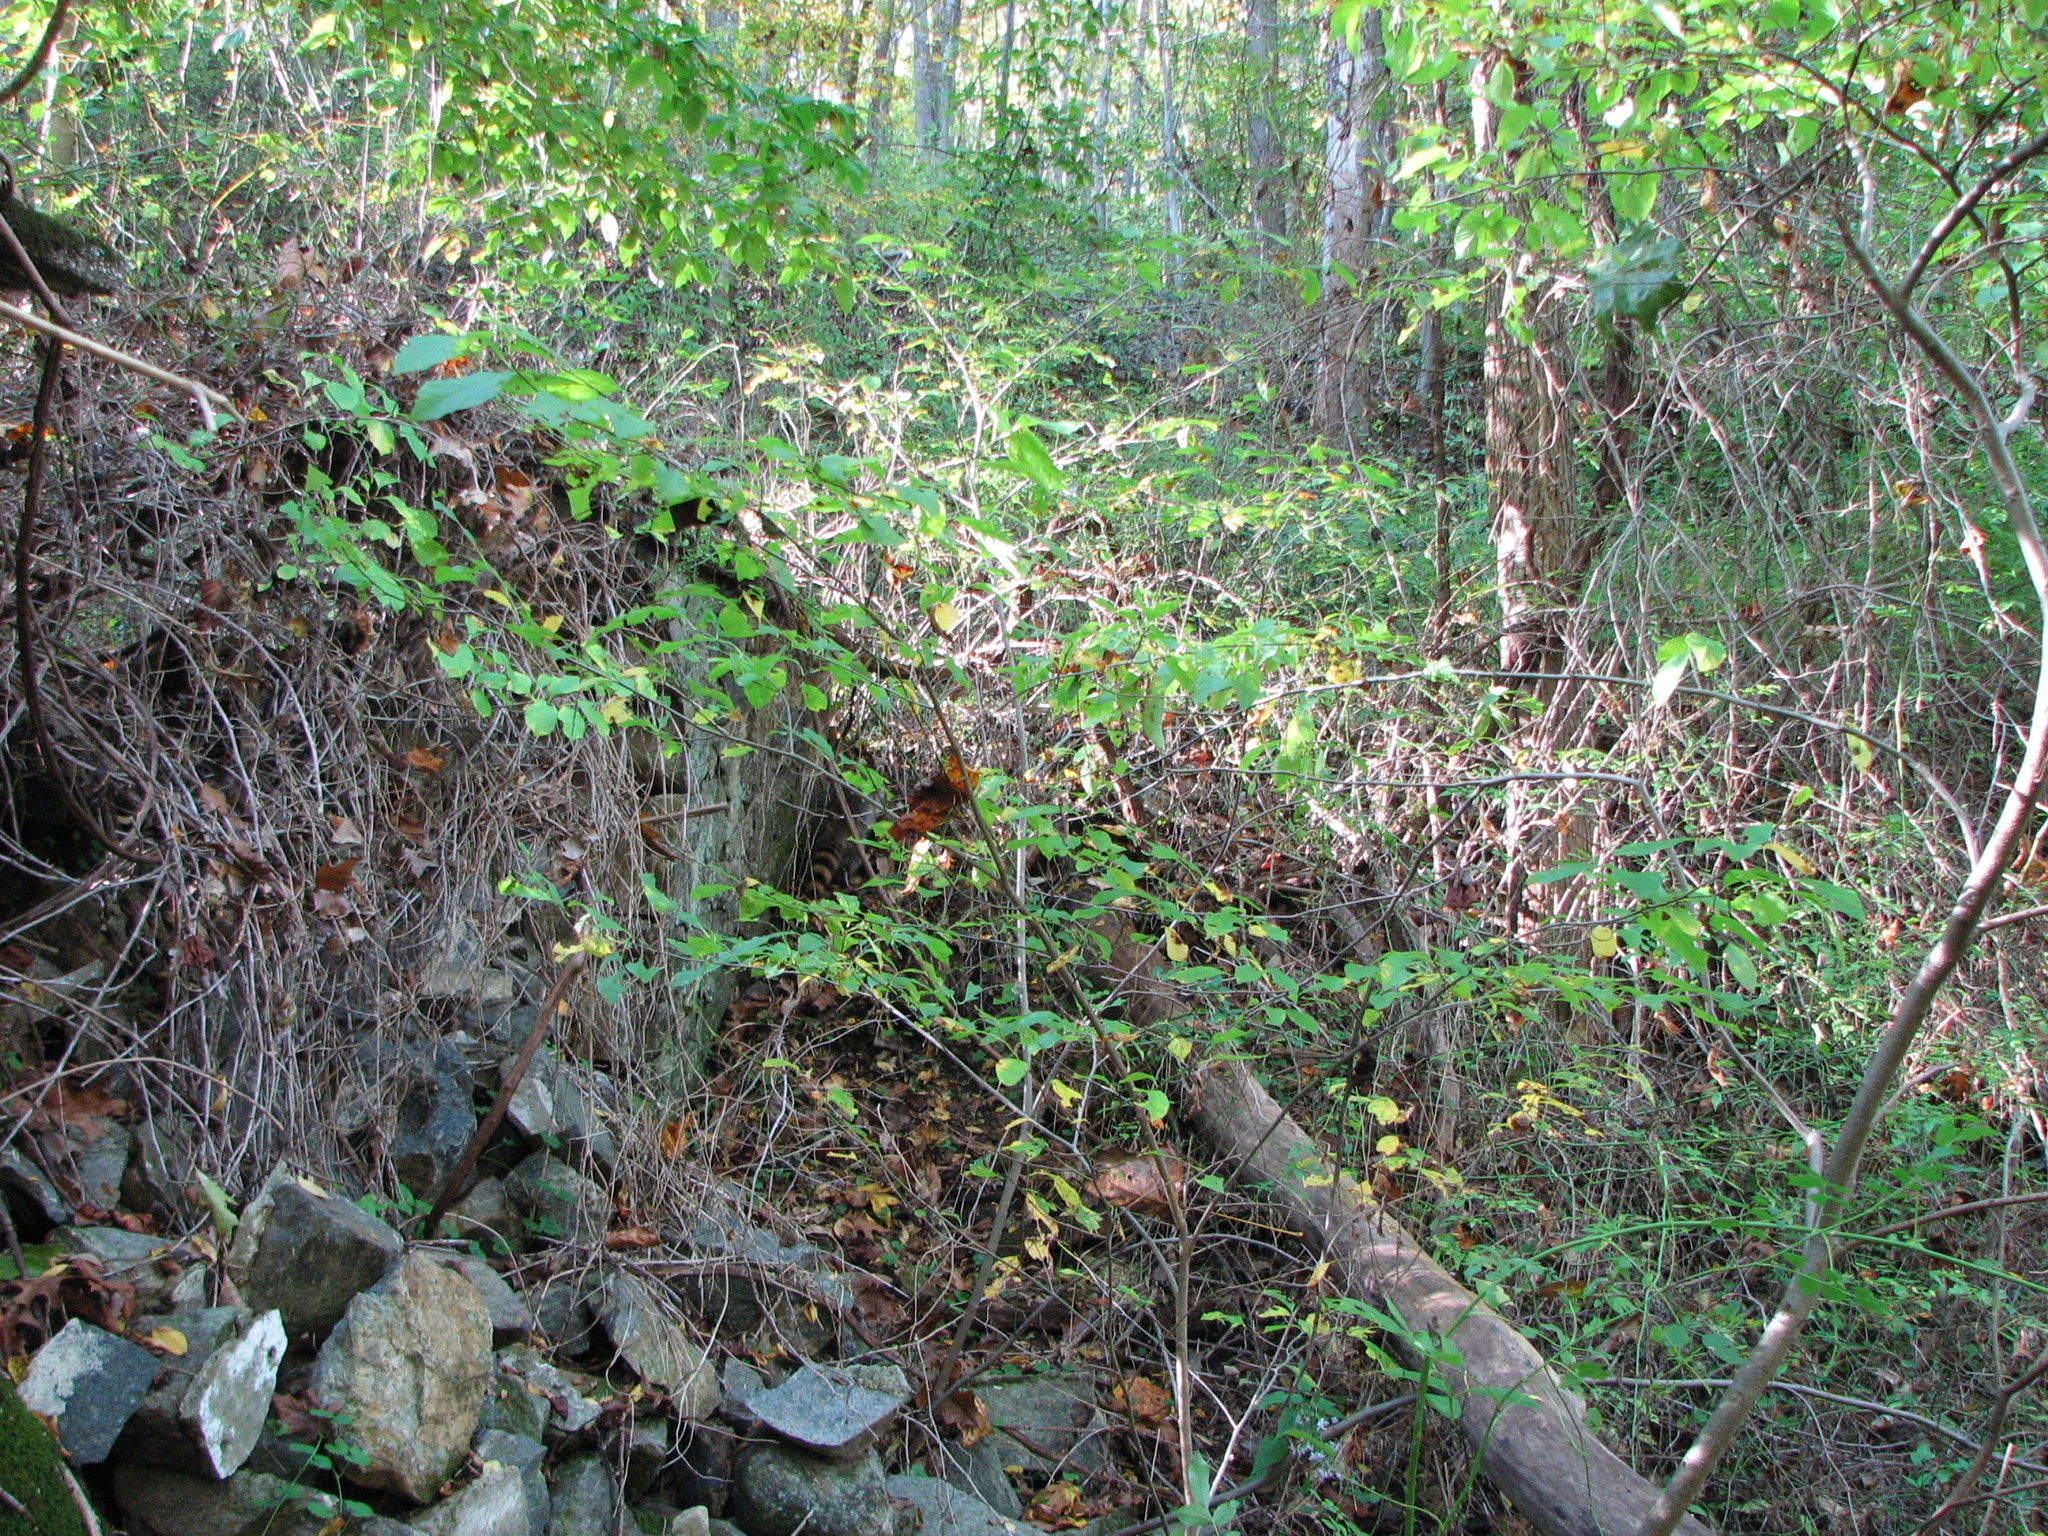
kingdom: Animalia
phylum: Chordata
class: Mammalia
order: Carnivora
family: Procyonidae
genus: Procyon
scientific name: Procyon lotor
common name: Raccoon
